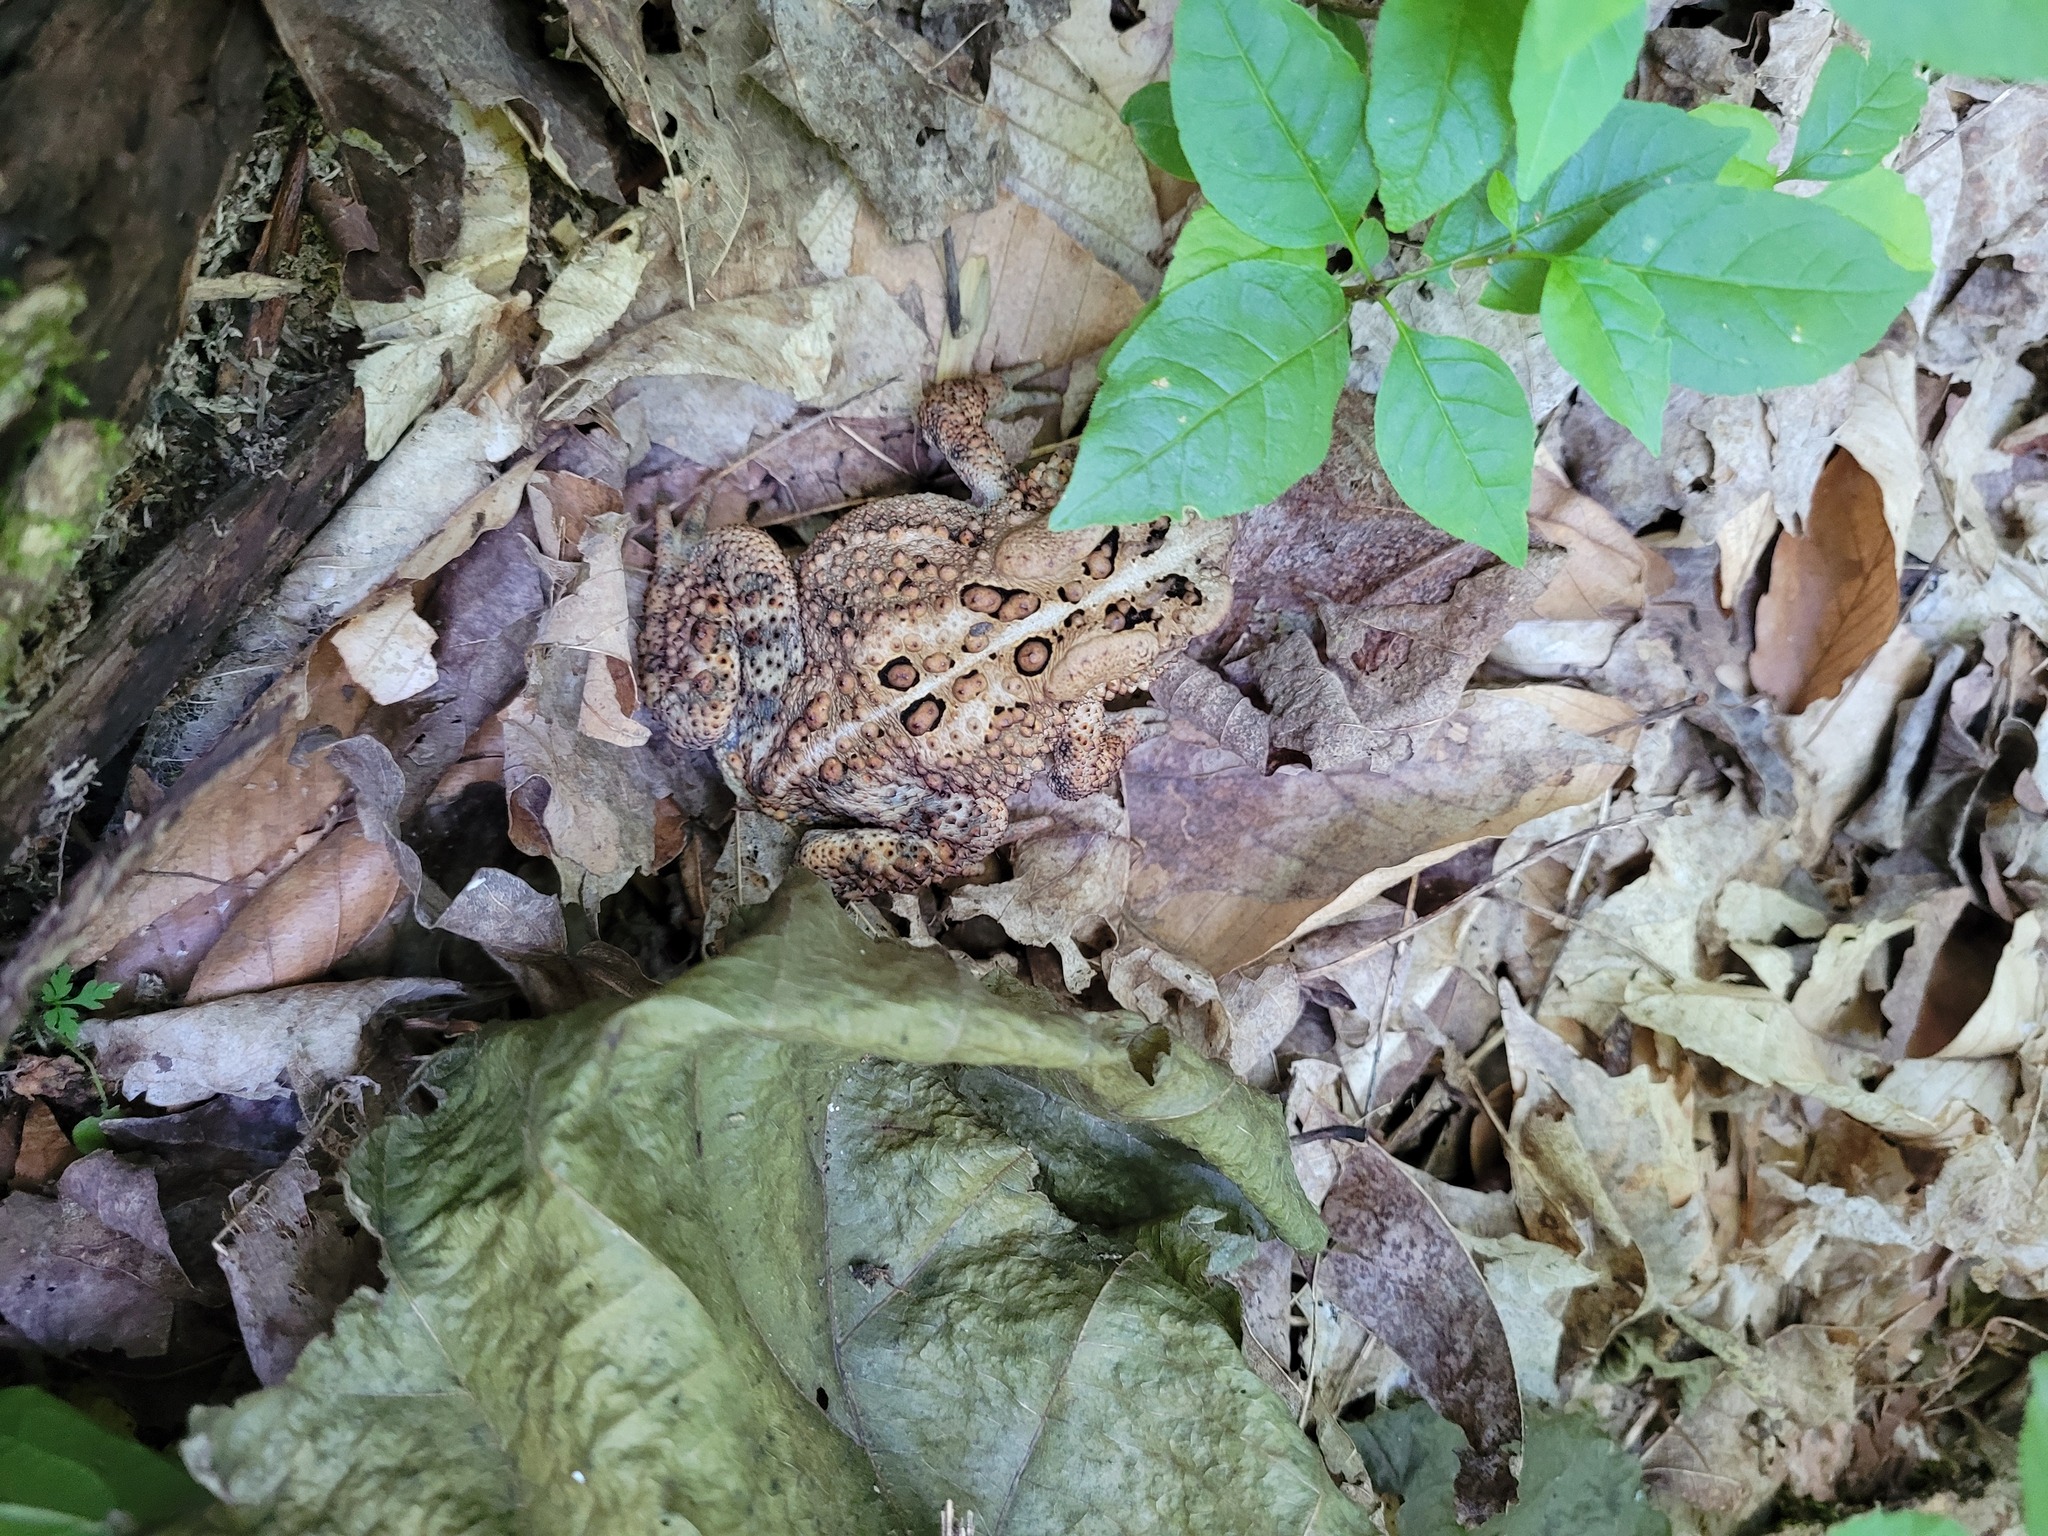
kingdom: Animalia
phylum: Chordata
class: Amphibia
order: Anura
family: Bufonidae
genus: Anaxyrus
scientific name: Anaxyrus americanus
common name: American toad
